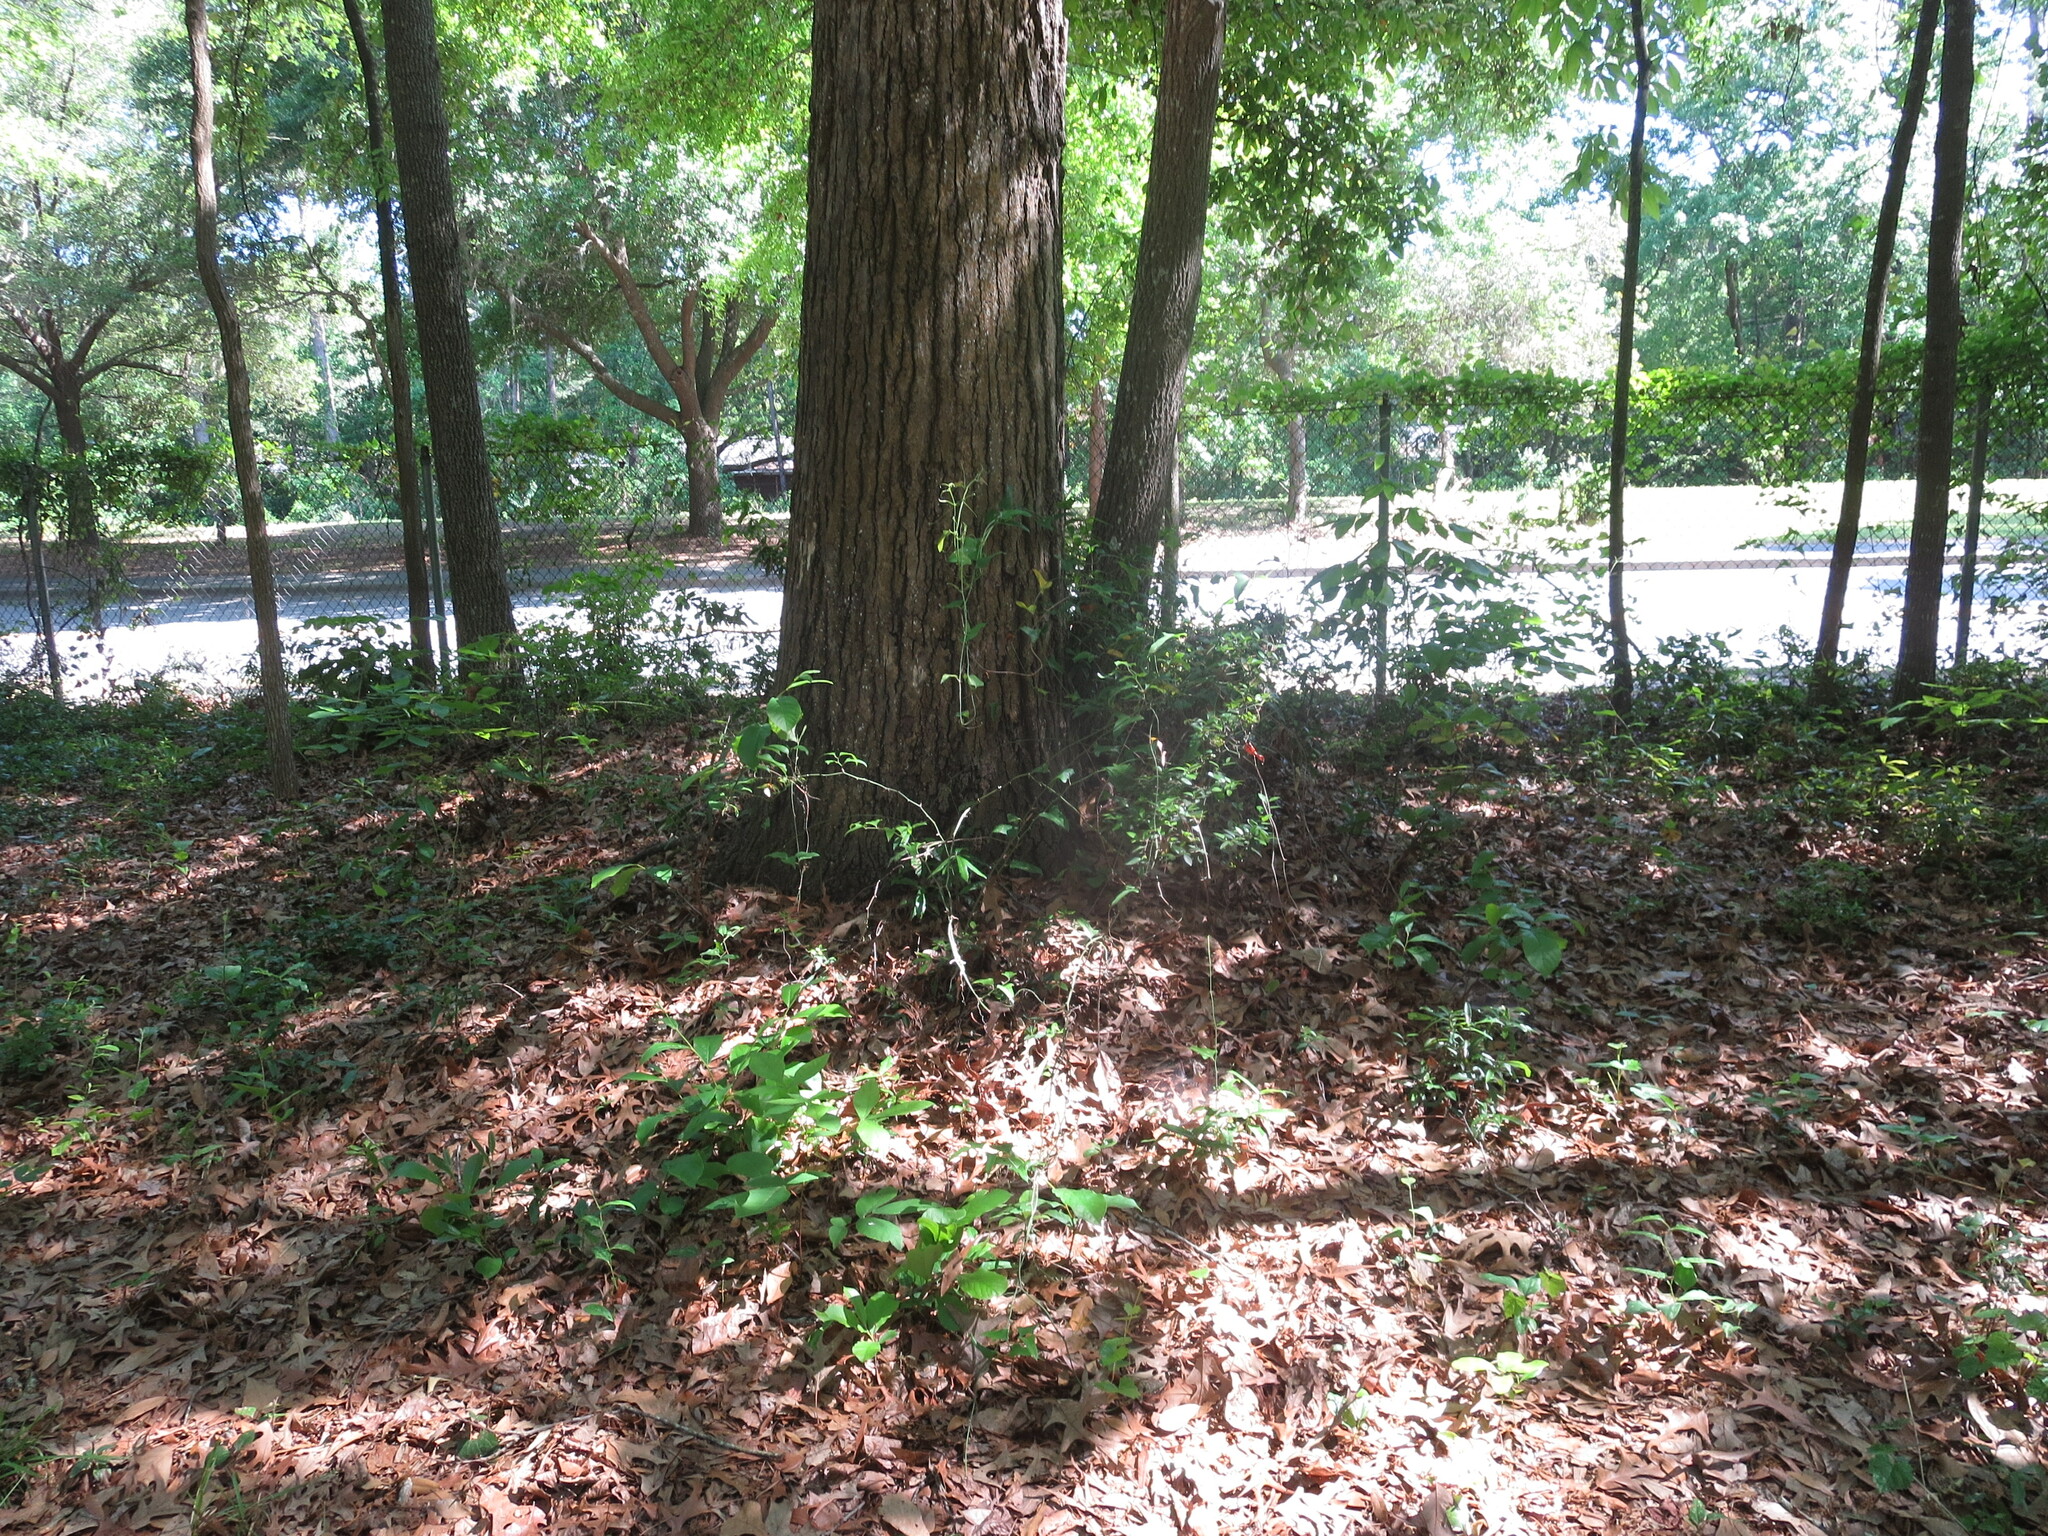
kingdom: Plantae
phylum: Tracheophyta
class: Magnoliopsida
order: Magnoliales
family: Annonaceae
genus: Asimina
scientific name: Asimina parviflora
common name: Dwarf pawpaw
